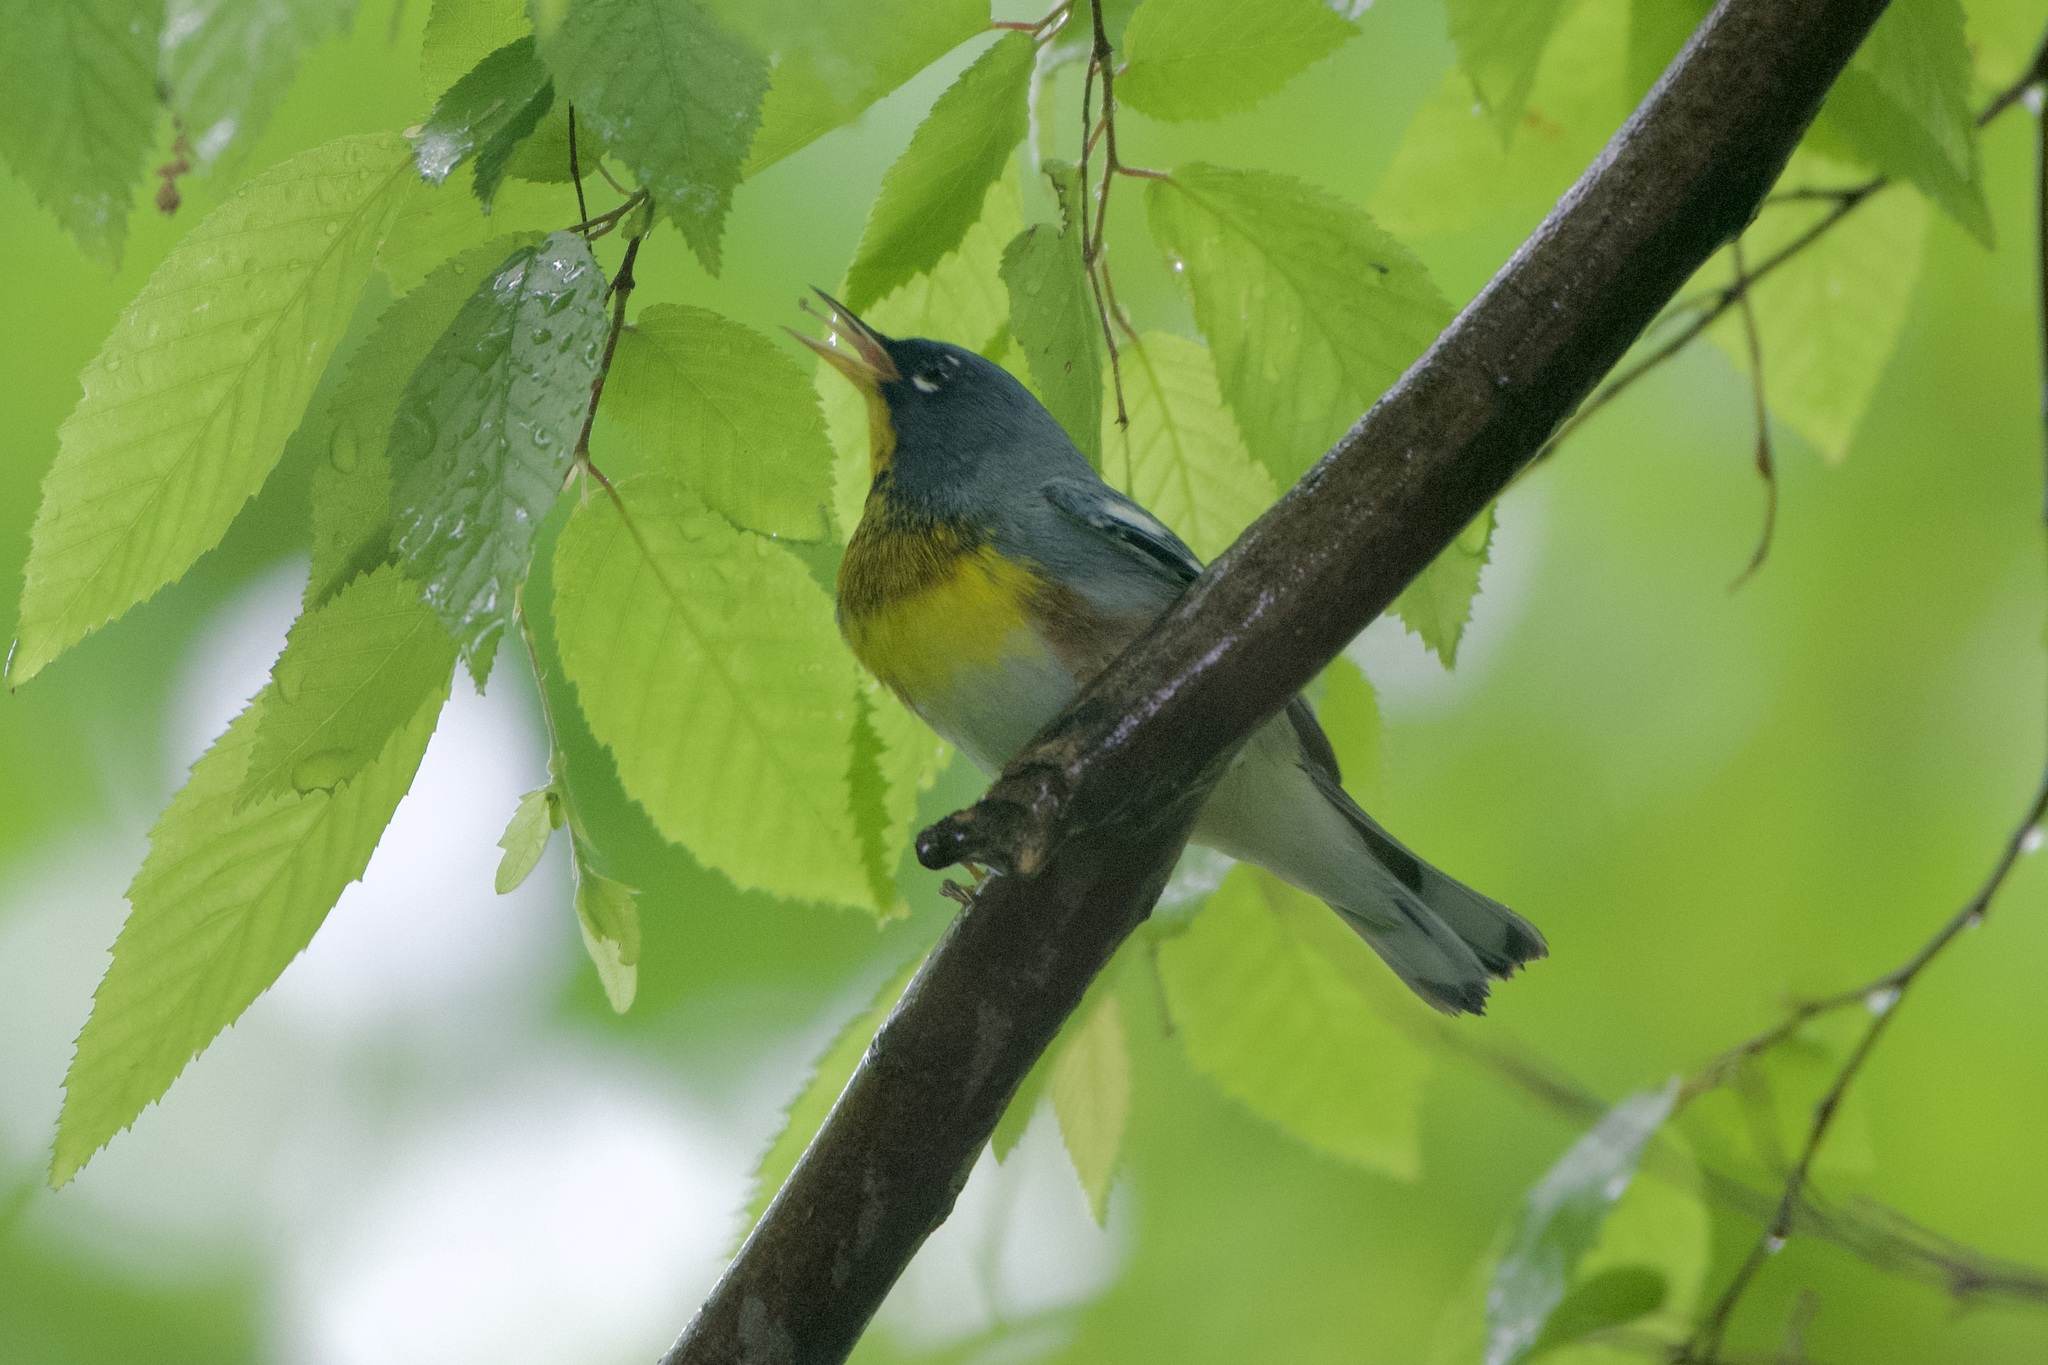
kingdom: Animalia
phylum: Chordata
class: Aves
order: Passeriformes
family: Parulidae
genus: Setophaga
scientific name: Setophaga americana
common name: Northern parula
